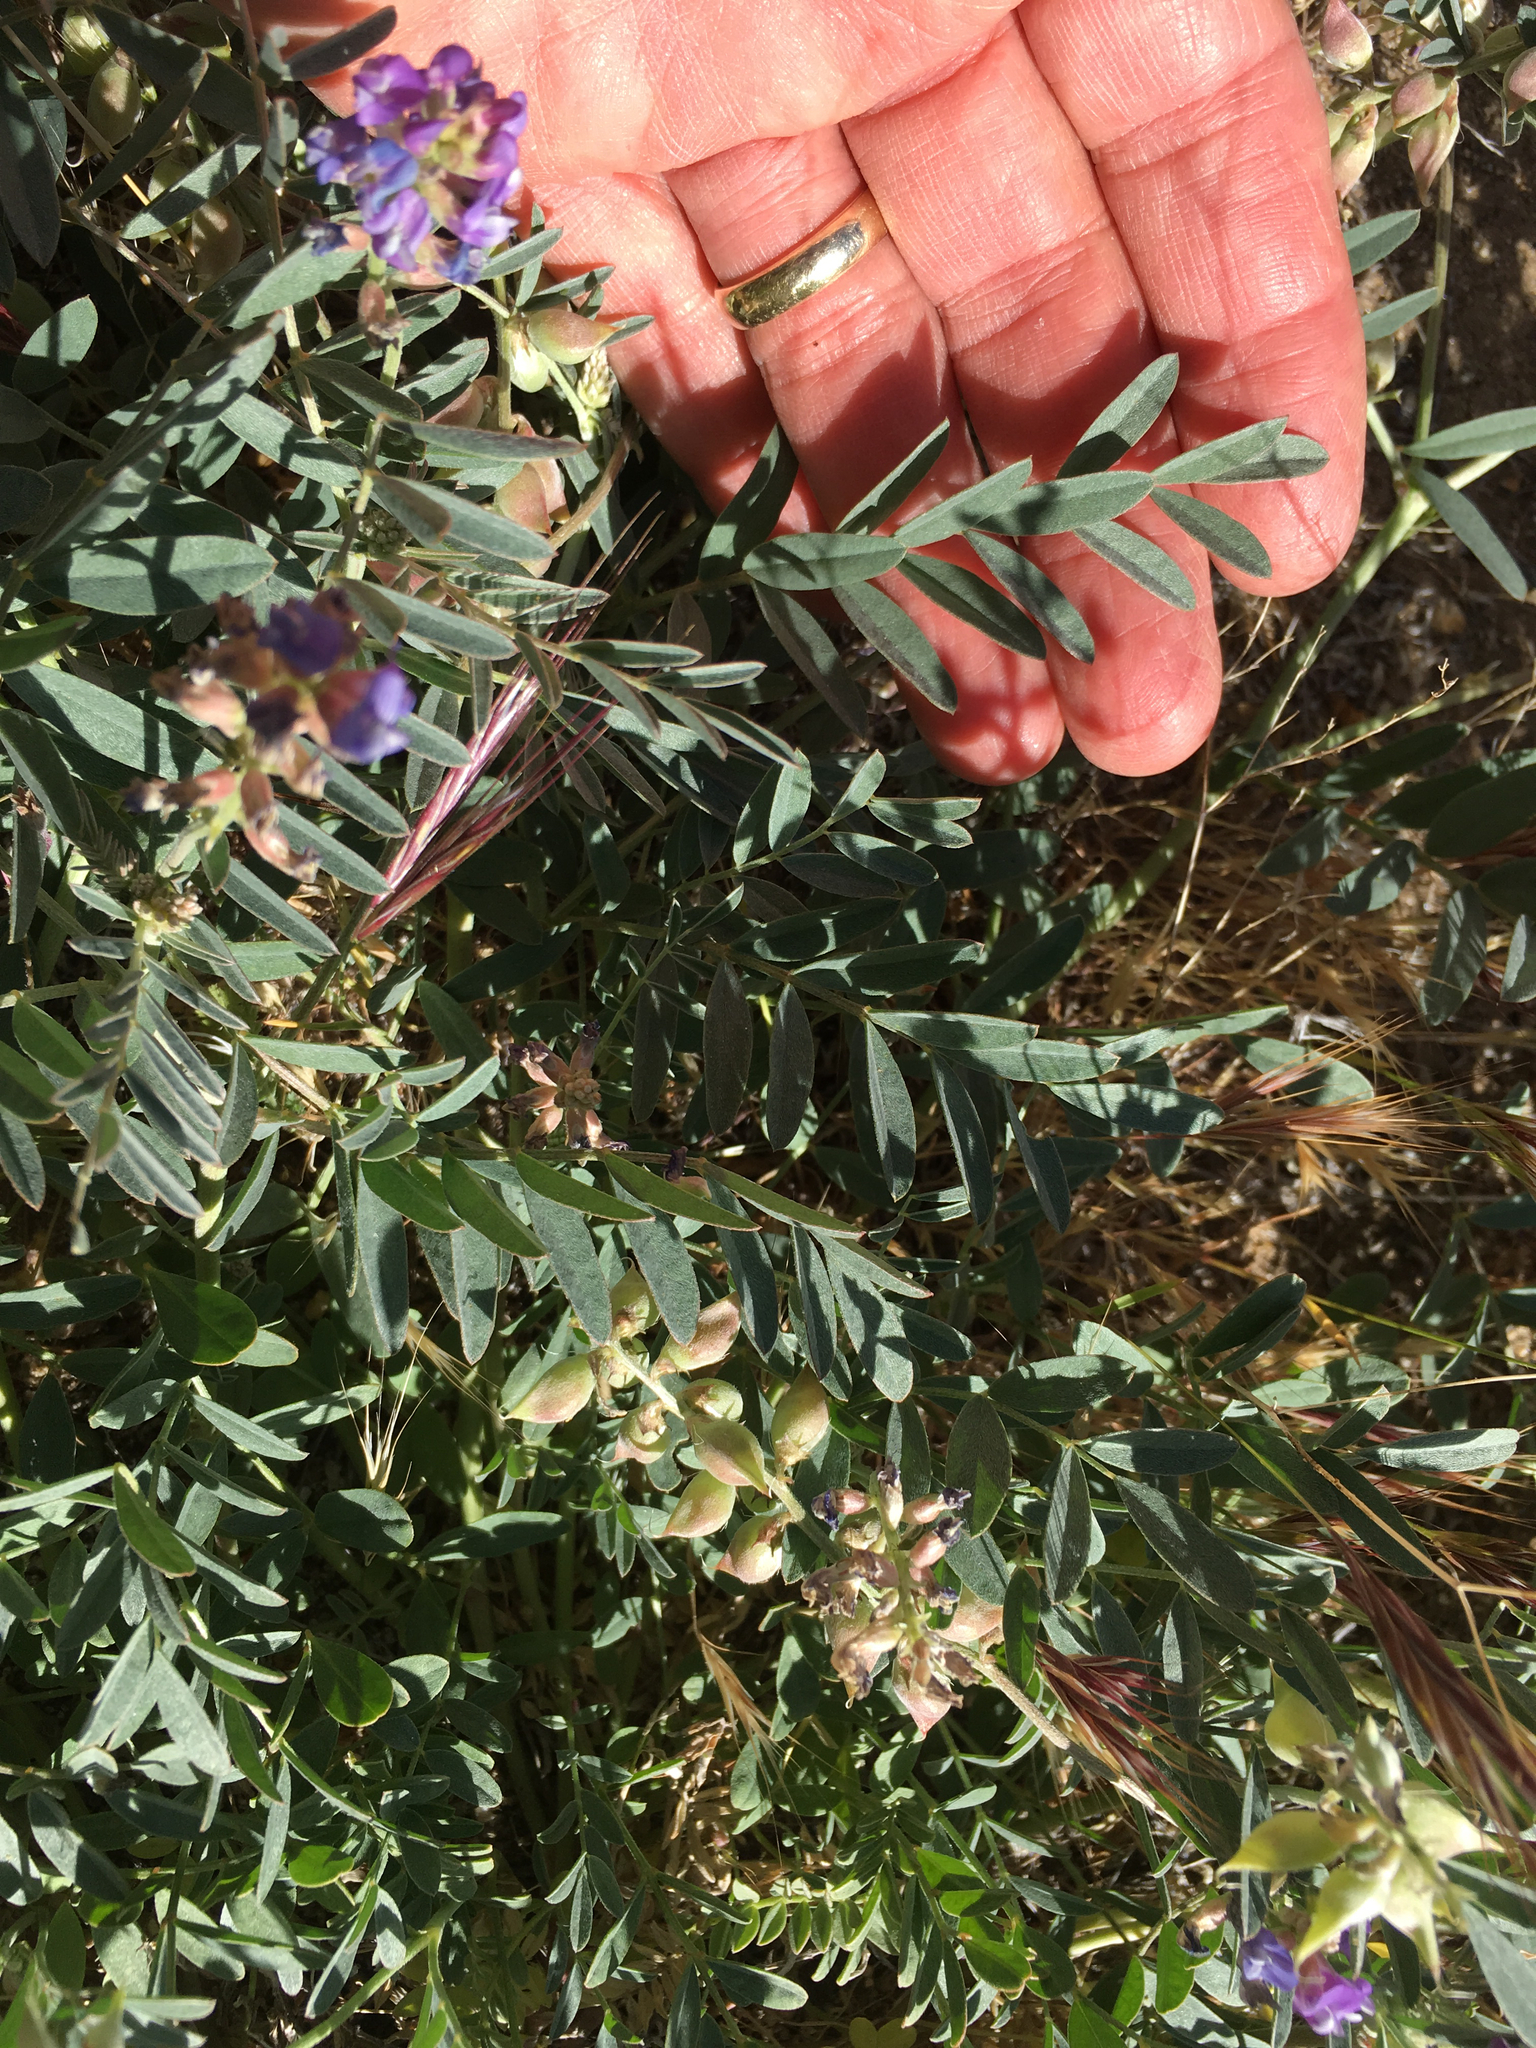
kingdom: Plantae
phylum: Tracheophyta
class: Magnoliopsida
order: Fabales
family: Fabaceae
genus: Astragalus
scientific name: Astragalus palmeri
